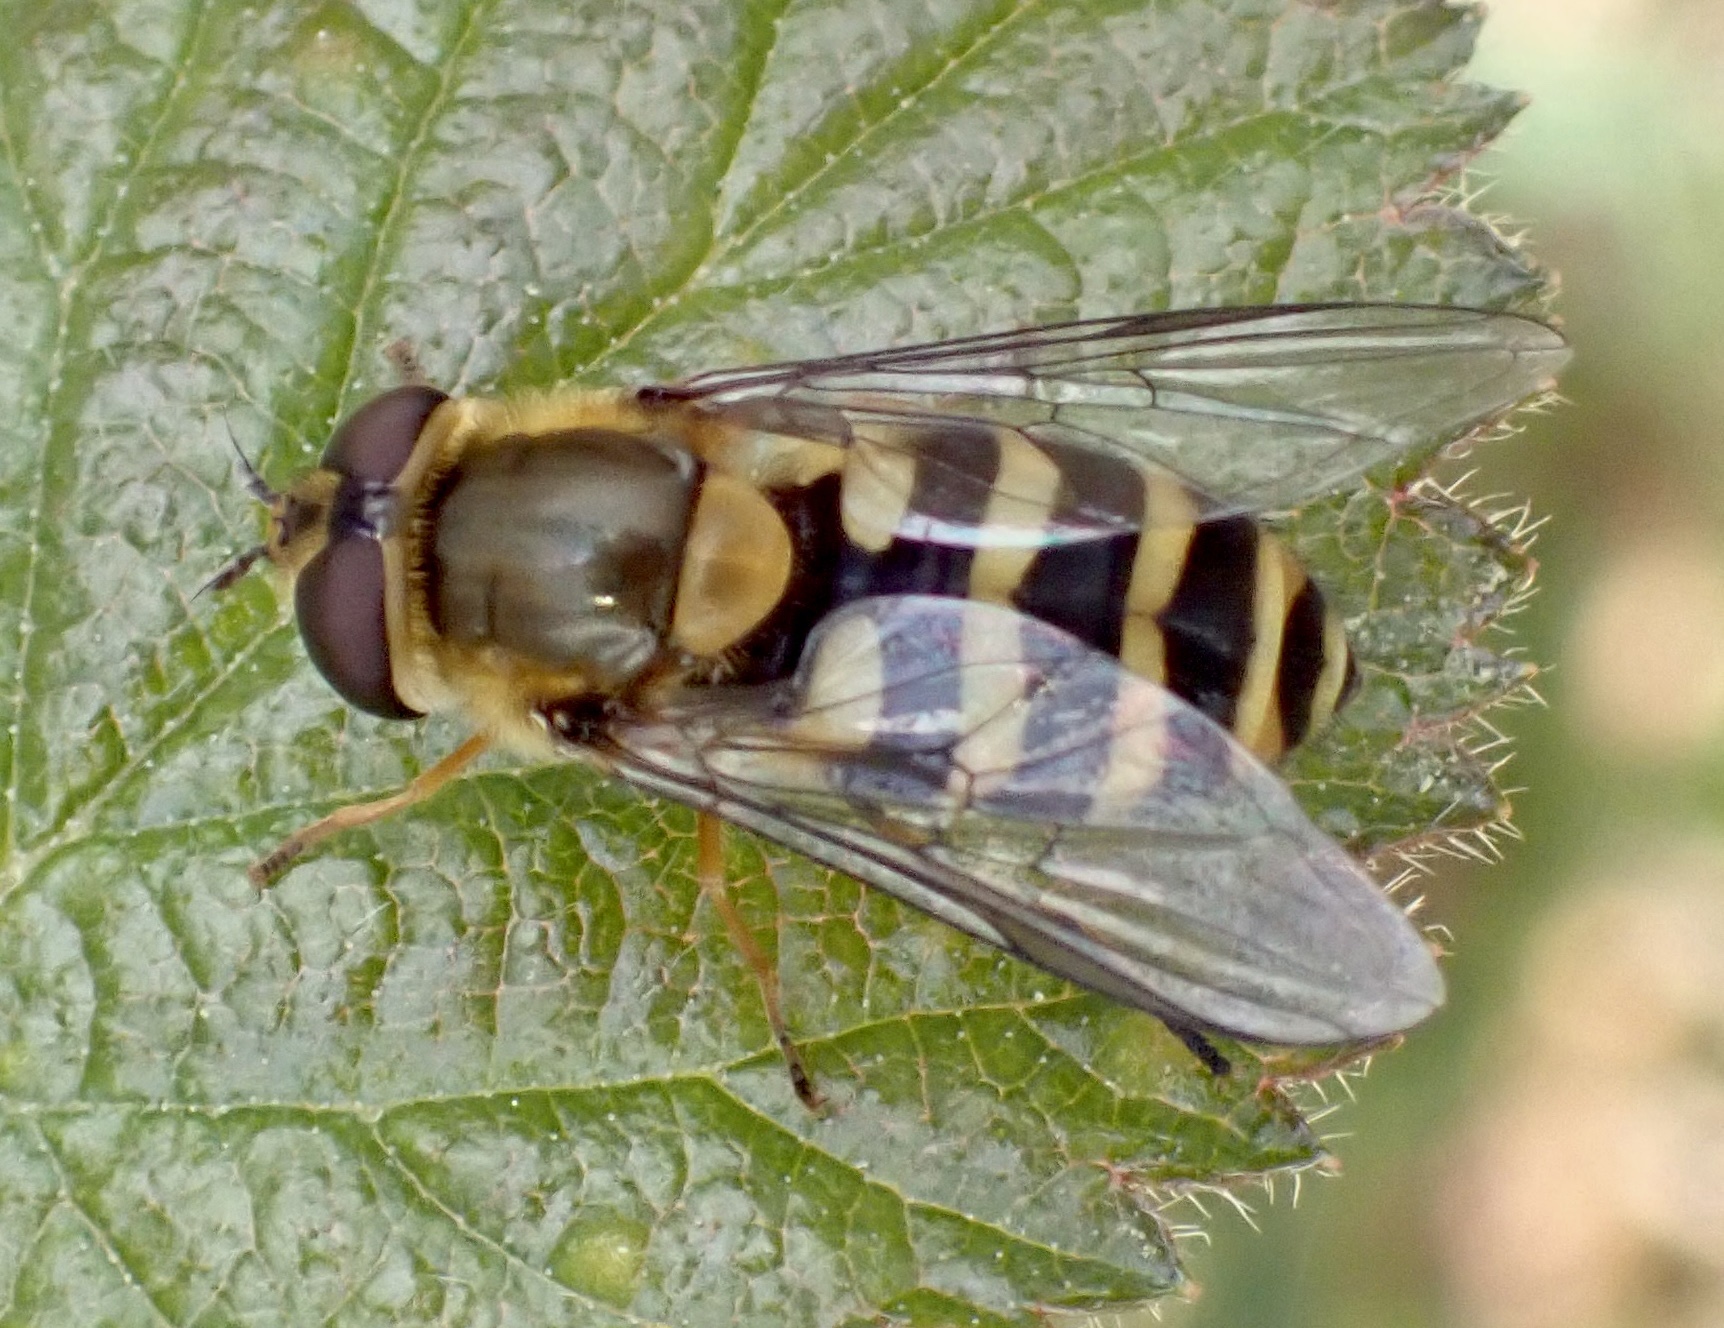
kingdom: Animalia
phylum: Arthropoda
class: Insecta
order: Diptera
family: Syrphidae
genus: Syrphus
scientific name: Syrphus
